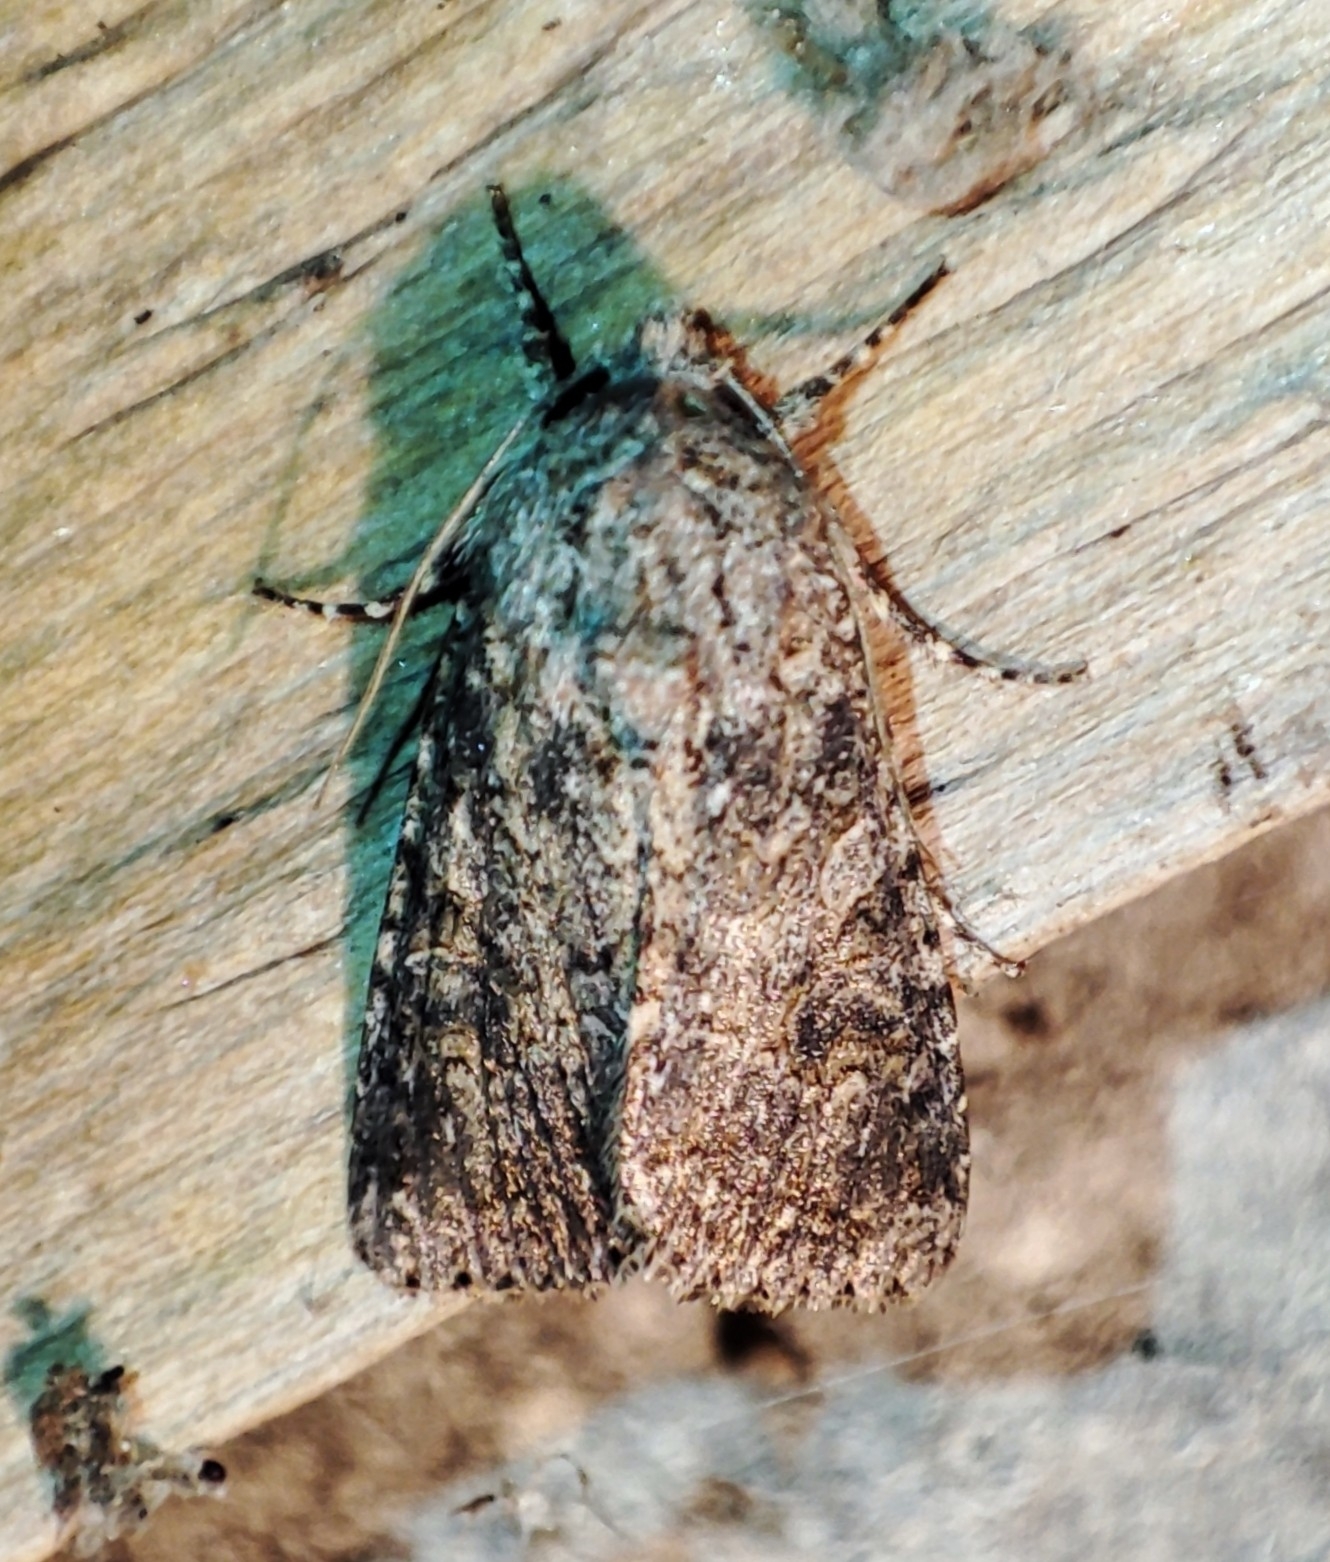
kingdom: Animalia
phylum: Arthropoda
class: Insecta
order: Lepidoptera
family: Noctuidae
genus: Anarta
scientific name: Anarta trifolii
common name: Clover cutworm moth
